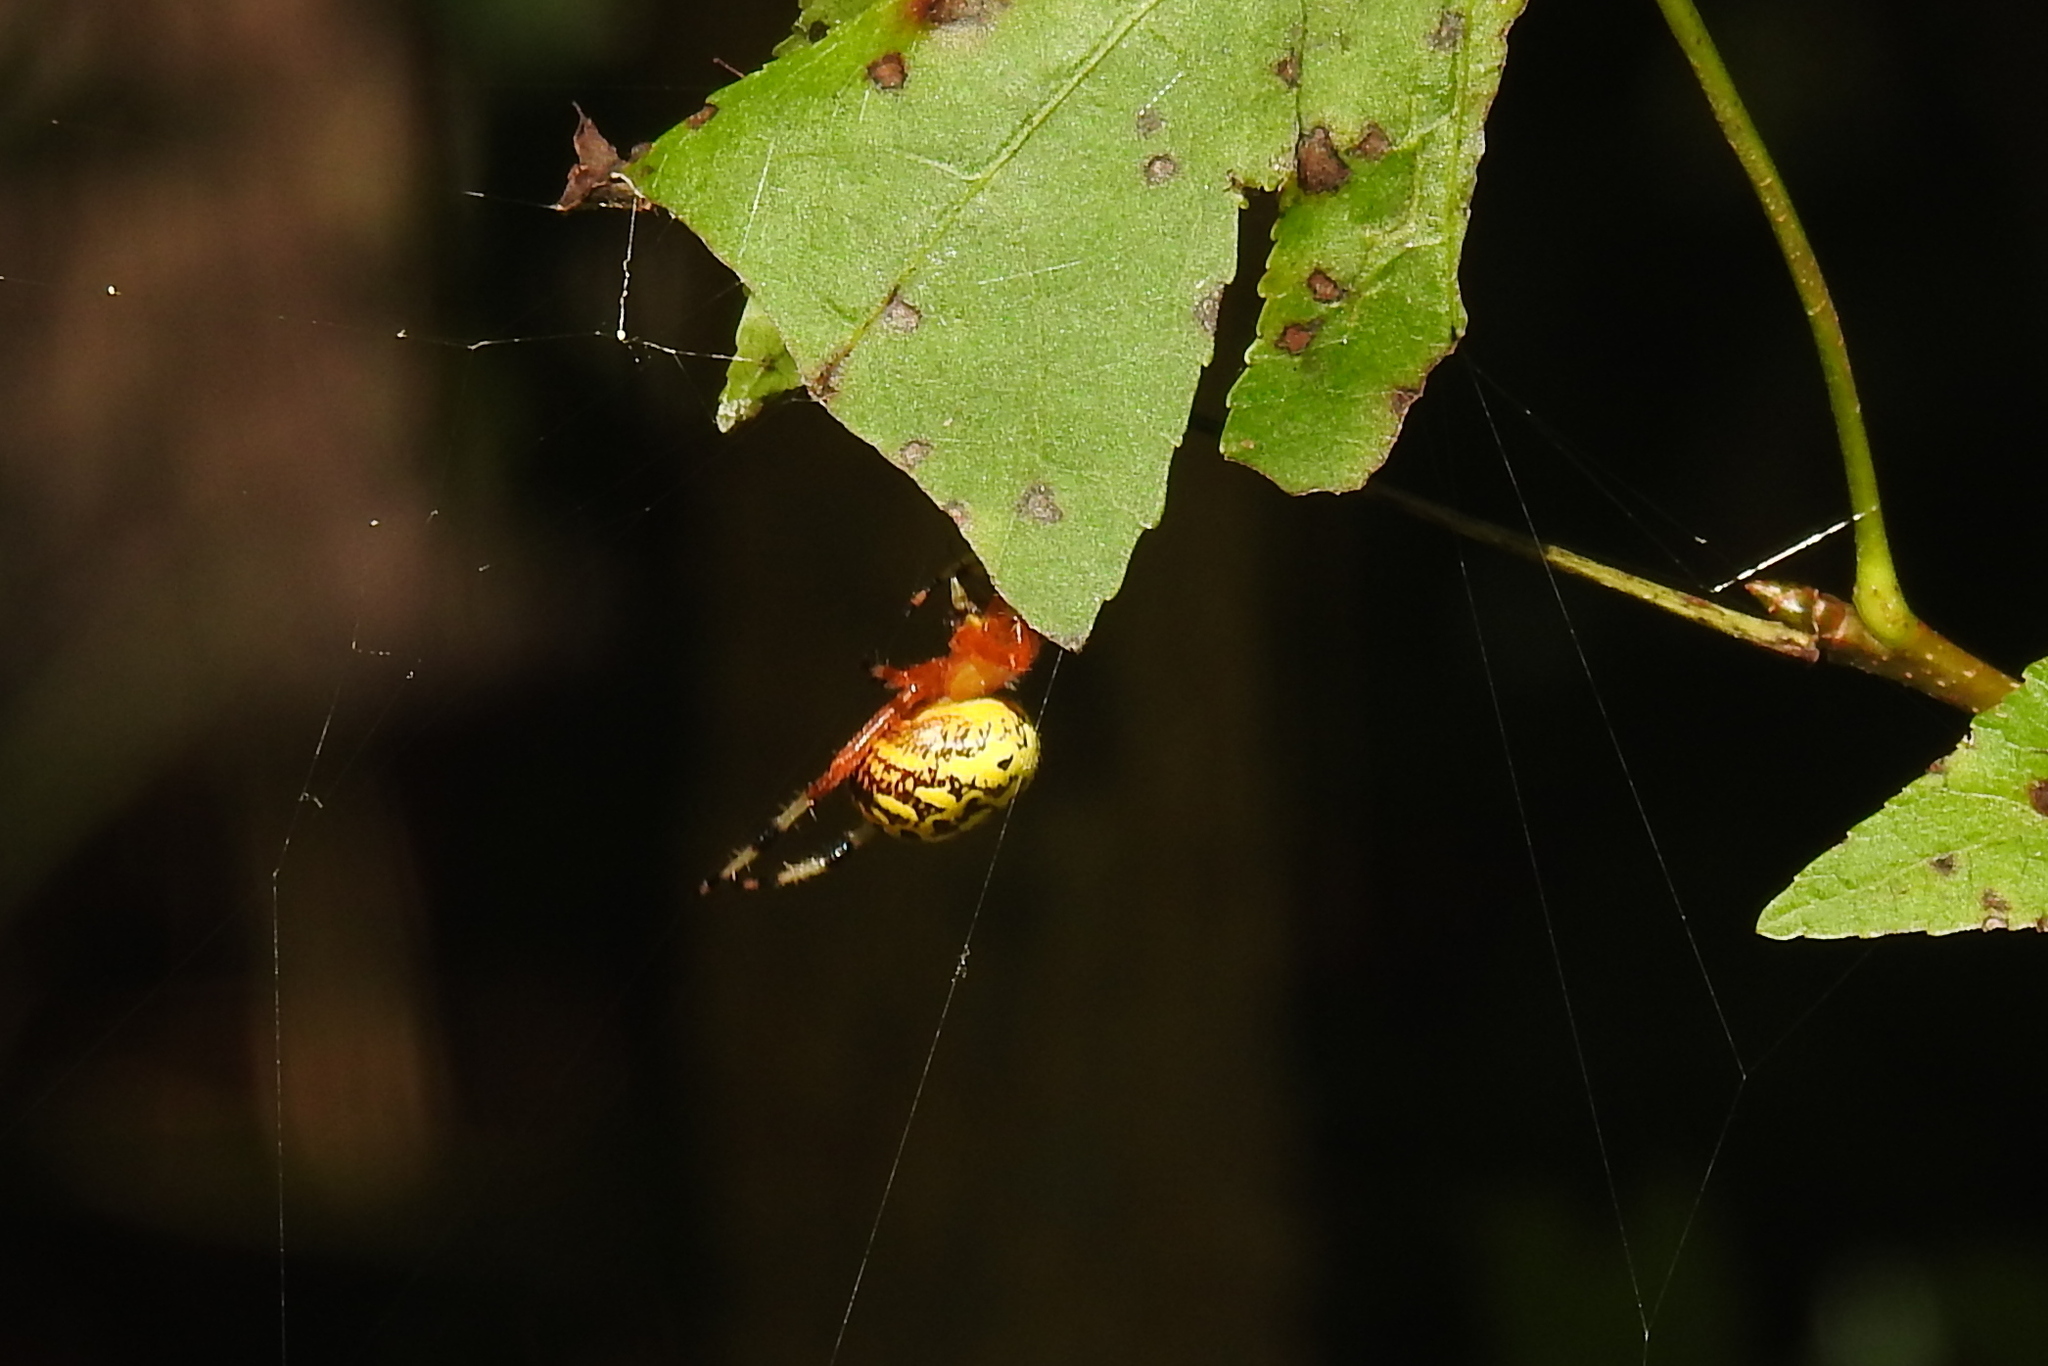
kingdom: Animalia
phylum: Arthropoda
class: Arachnida
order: Araneae
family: Araneidae
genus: Araneus
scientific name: Araneus marmoreus
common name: Marbled orbweaver
